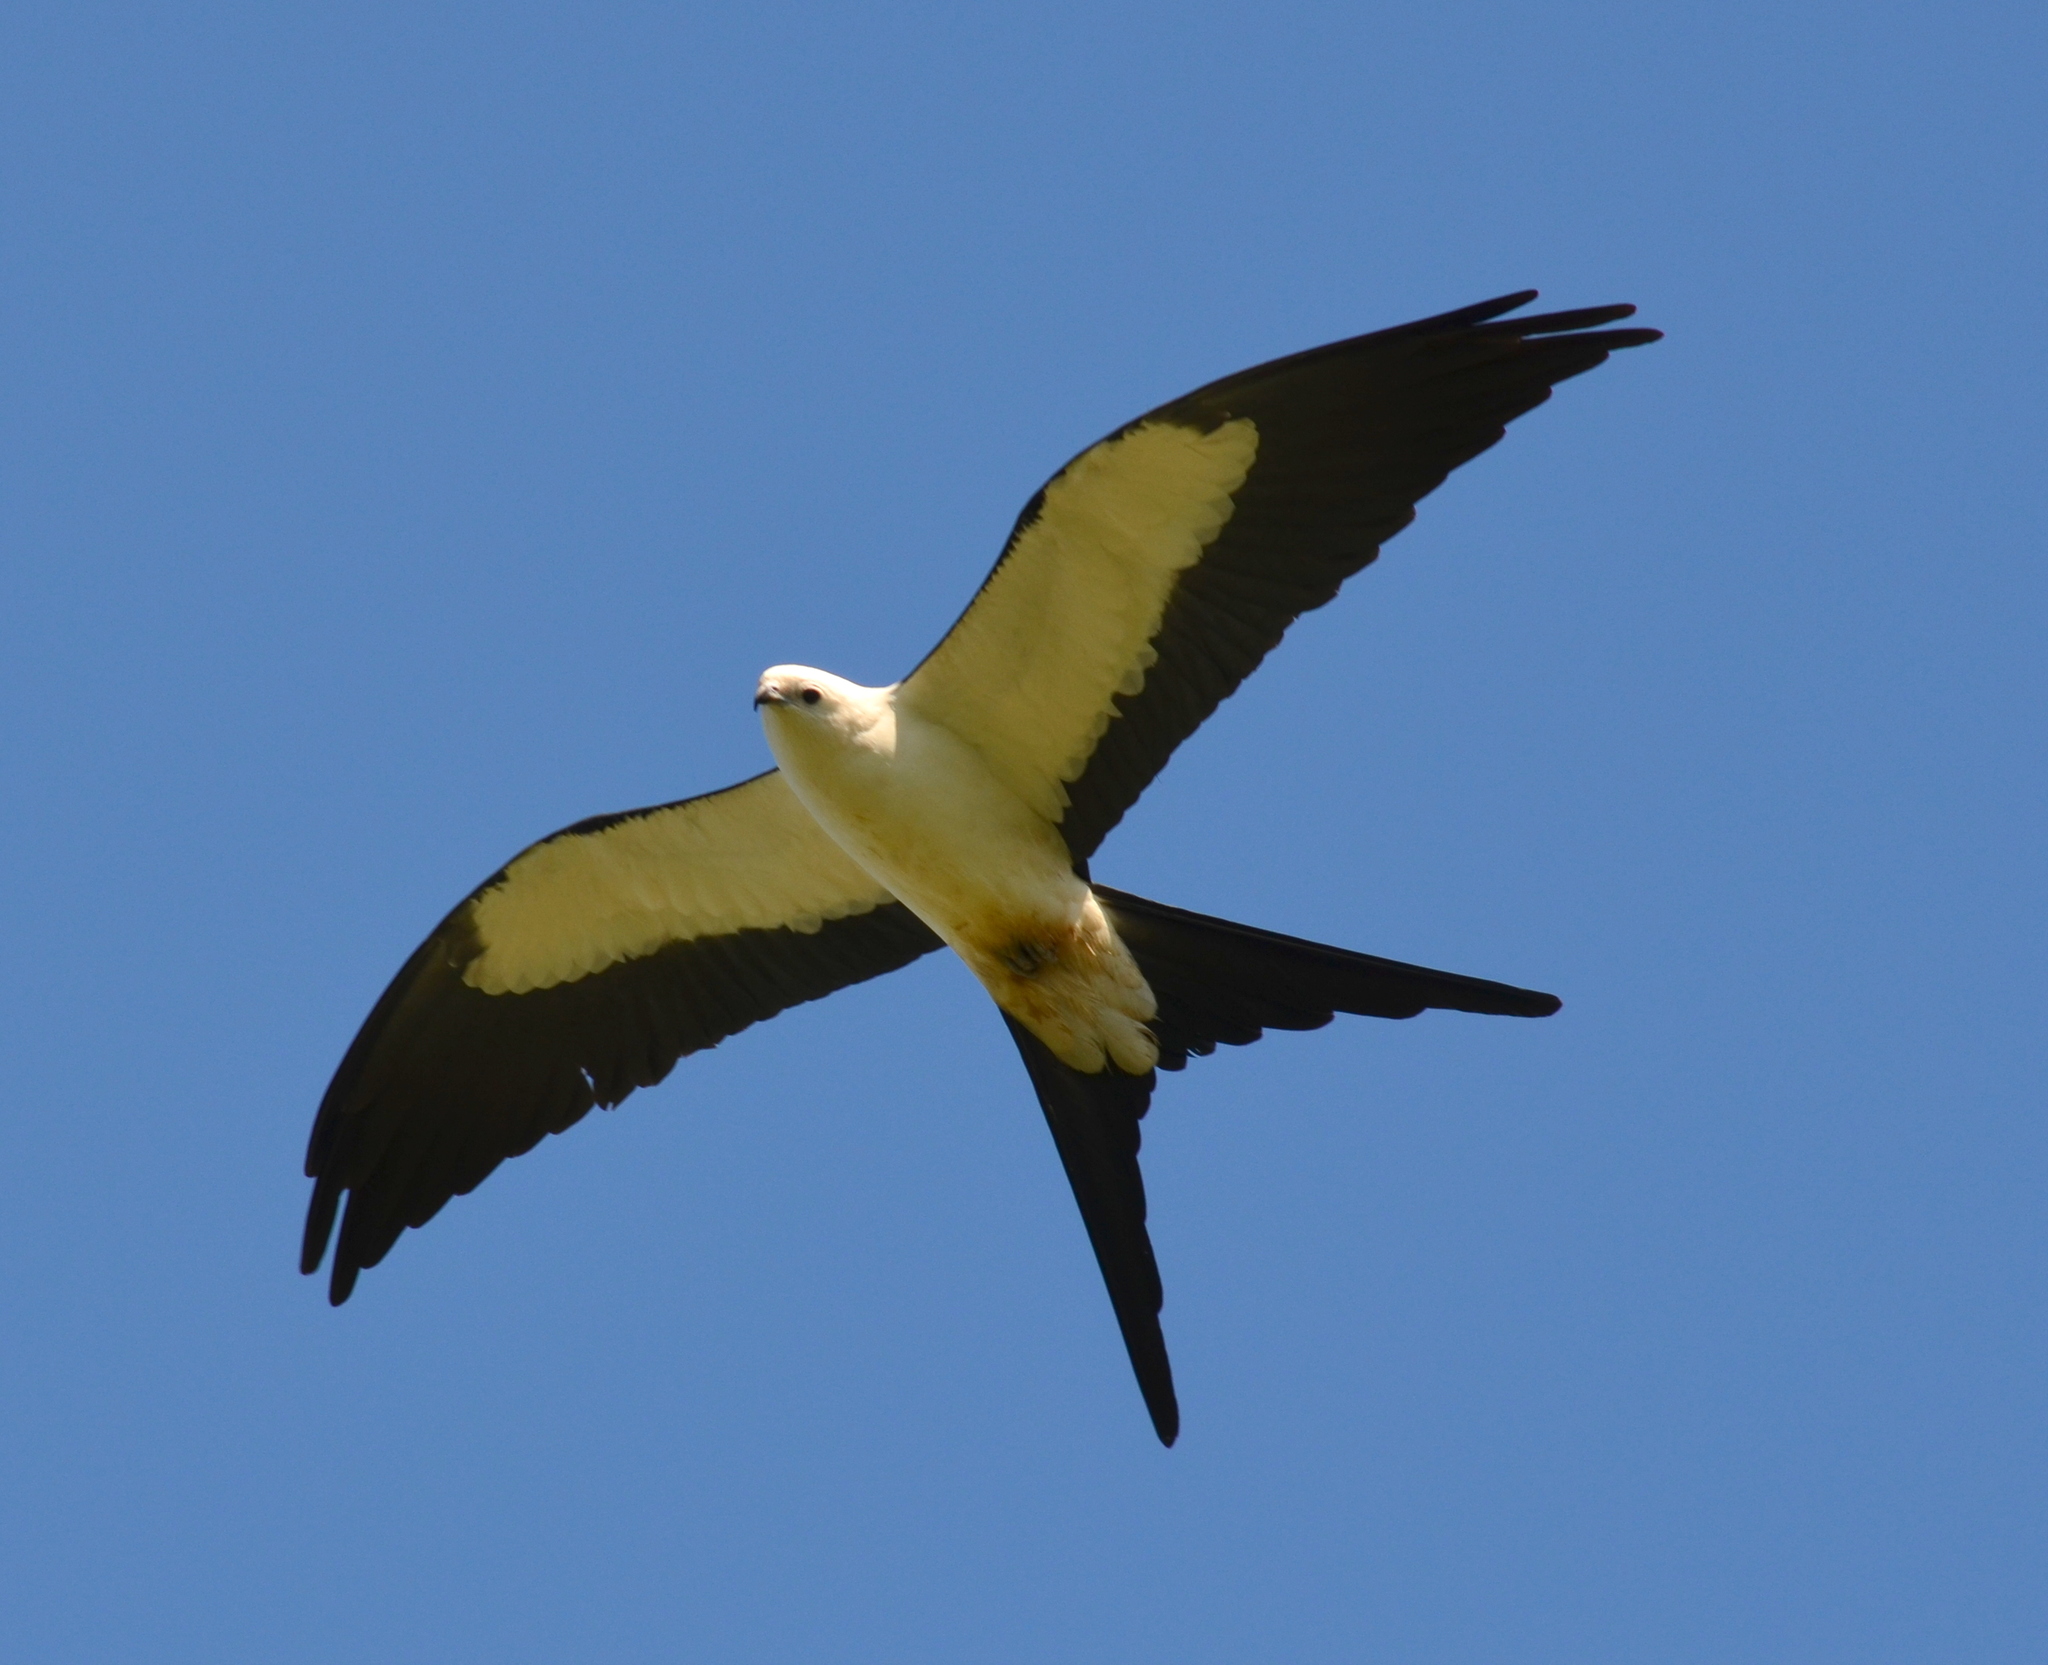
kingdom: Animalia
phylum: Chordata
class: Aves
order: Accipitriformes
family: Accipitridae
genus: Elanoides
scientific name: Elanoides forficatus
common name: Swallow-tailed kite
